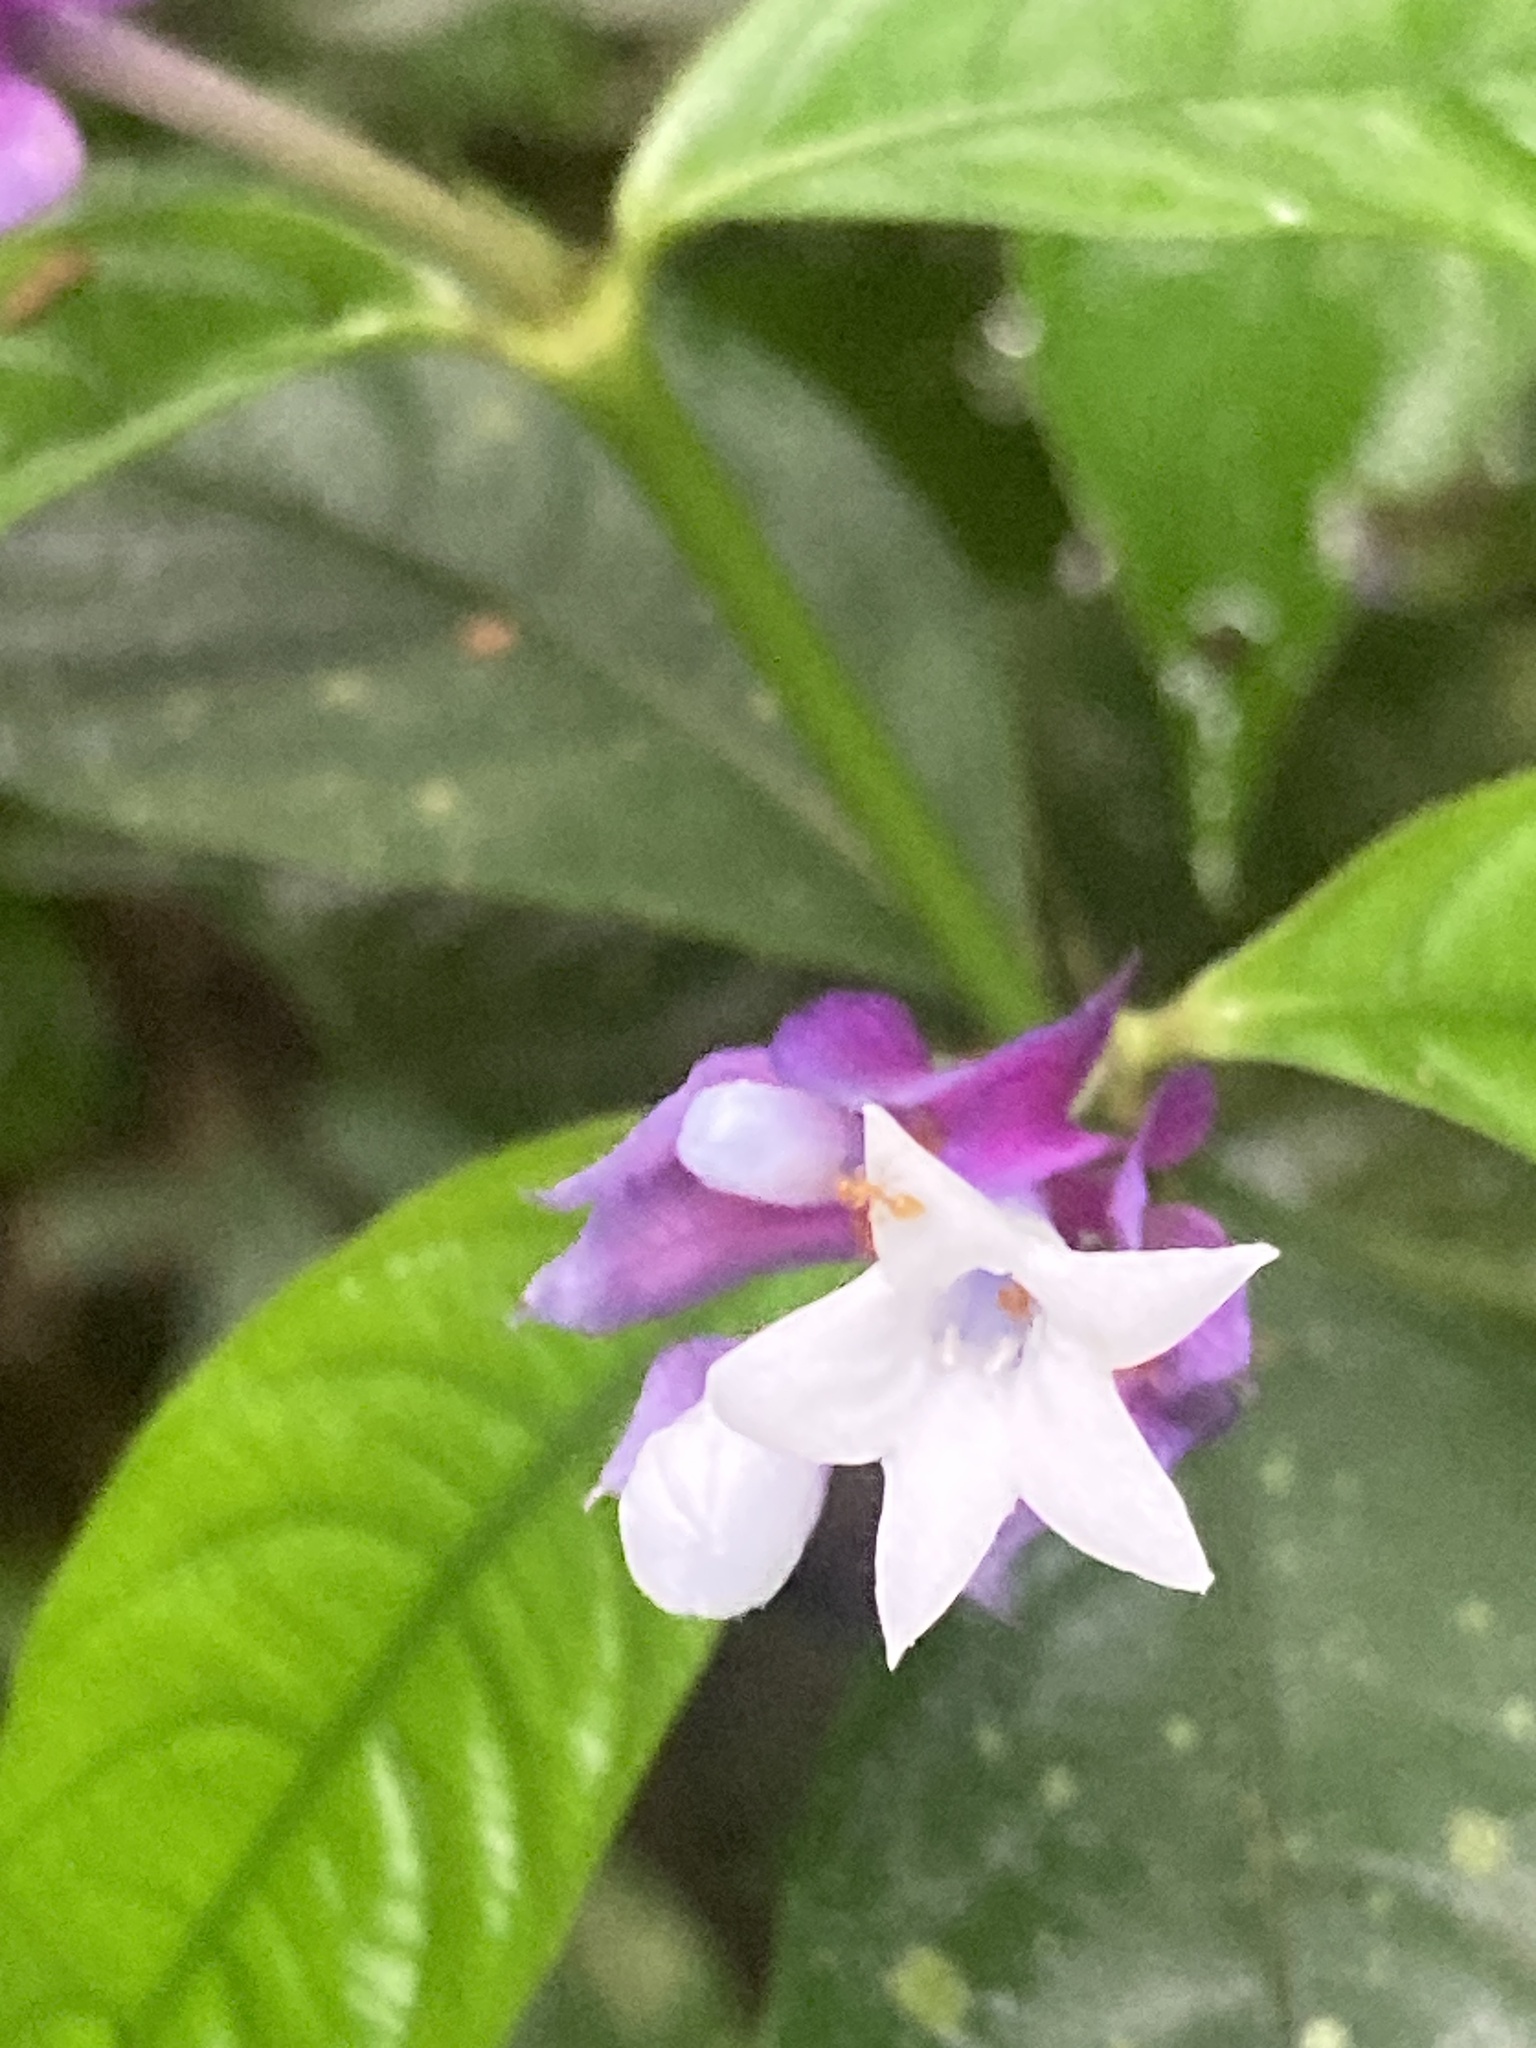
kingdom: Plantae
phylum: Tracheophyta
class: Magnoliopsida
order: Gentianales
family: Rubiaceae
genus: Palicourea
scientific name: Palicourea ostreophora
